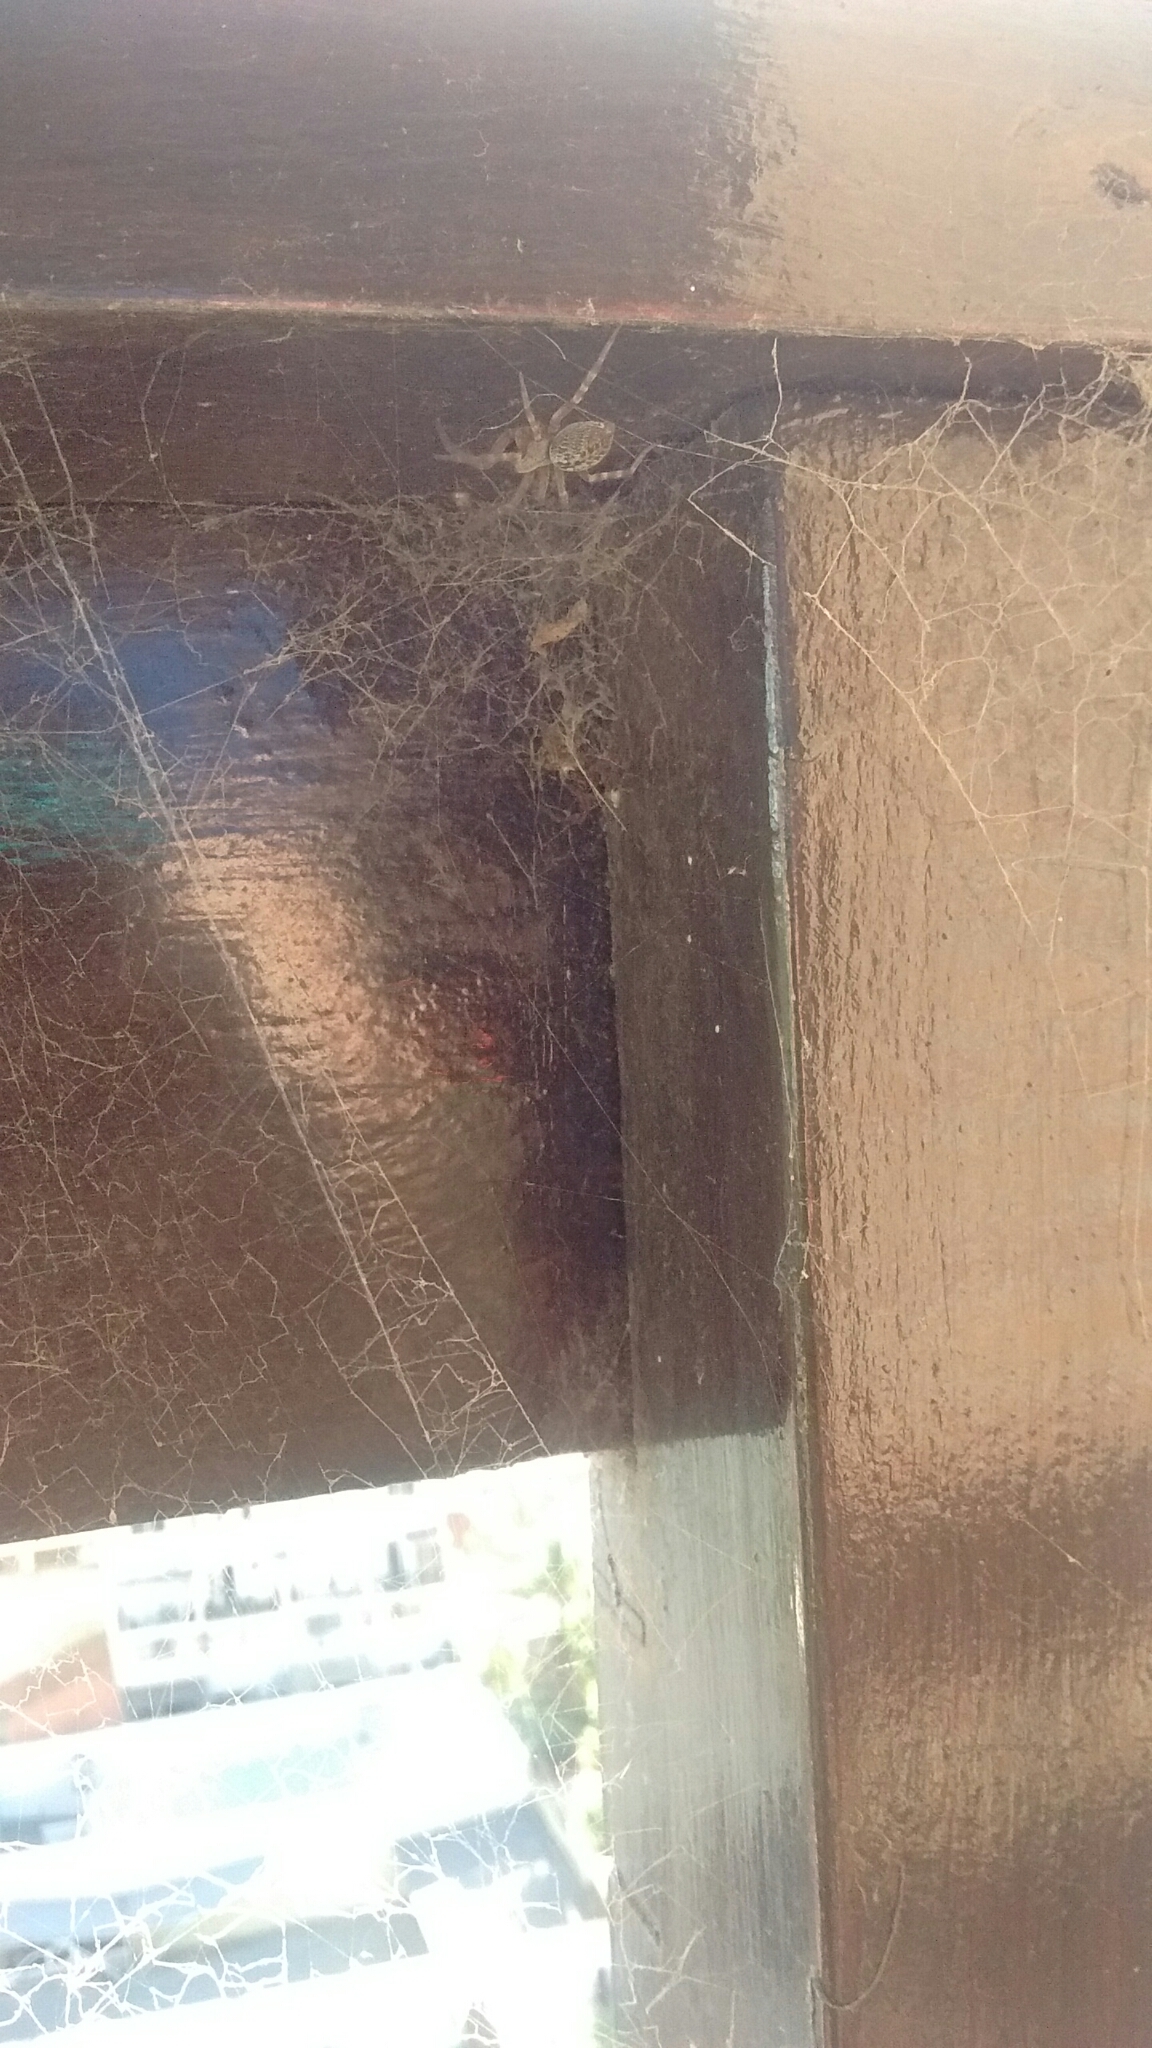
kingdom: Animalia
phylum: Arthropoda
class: Arachnida
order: Araneae
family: Desidae
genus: Badumna
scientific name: Badumna longinqua
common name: Gray house spider
